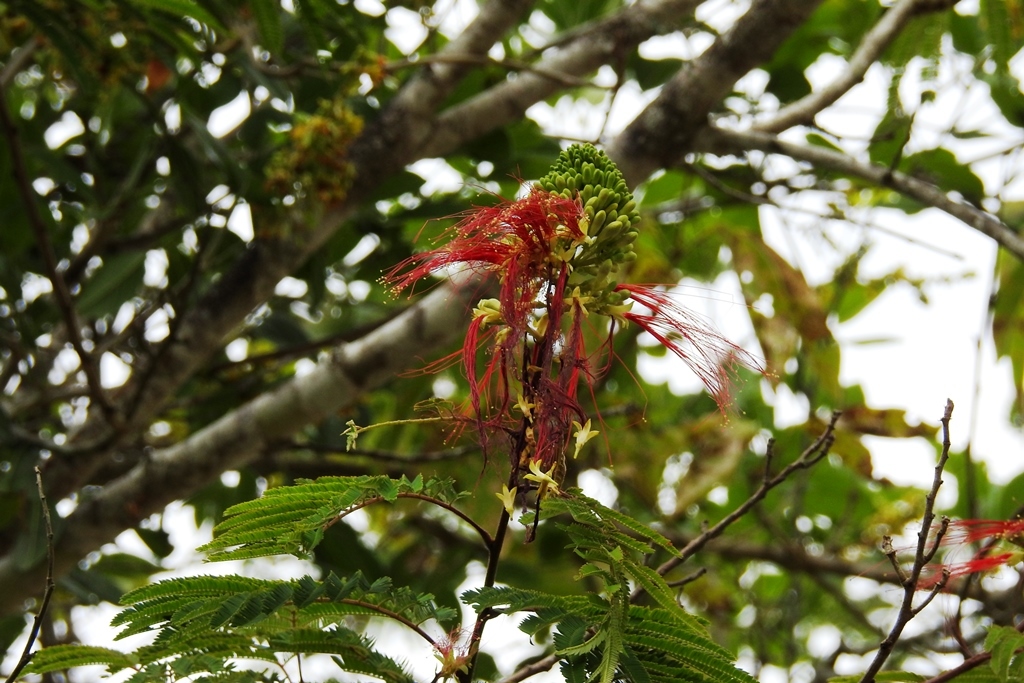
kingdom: Plantae
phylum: Tracheophyta
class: Magnoliopsida
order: Fabales
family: Fabaceae
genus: Calliandra
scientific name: Calliandra houstoniana
